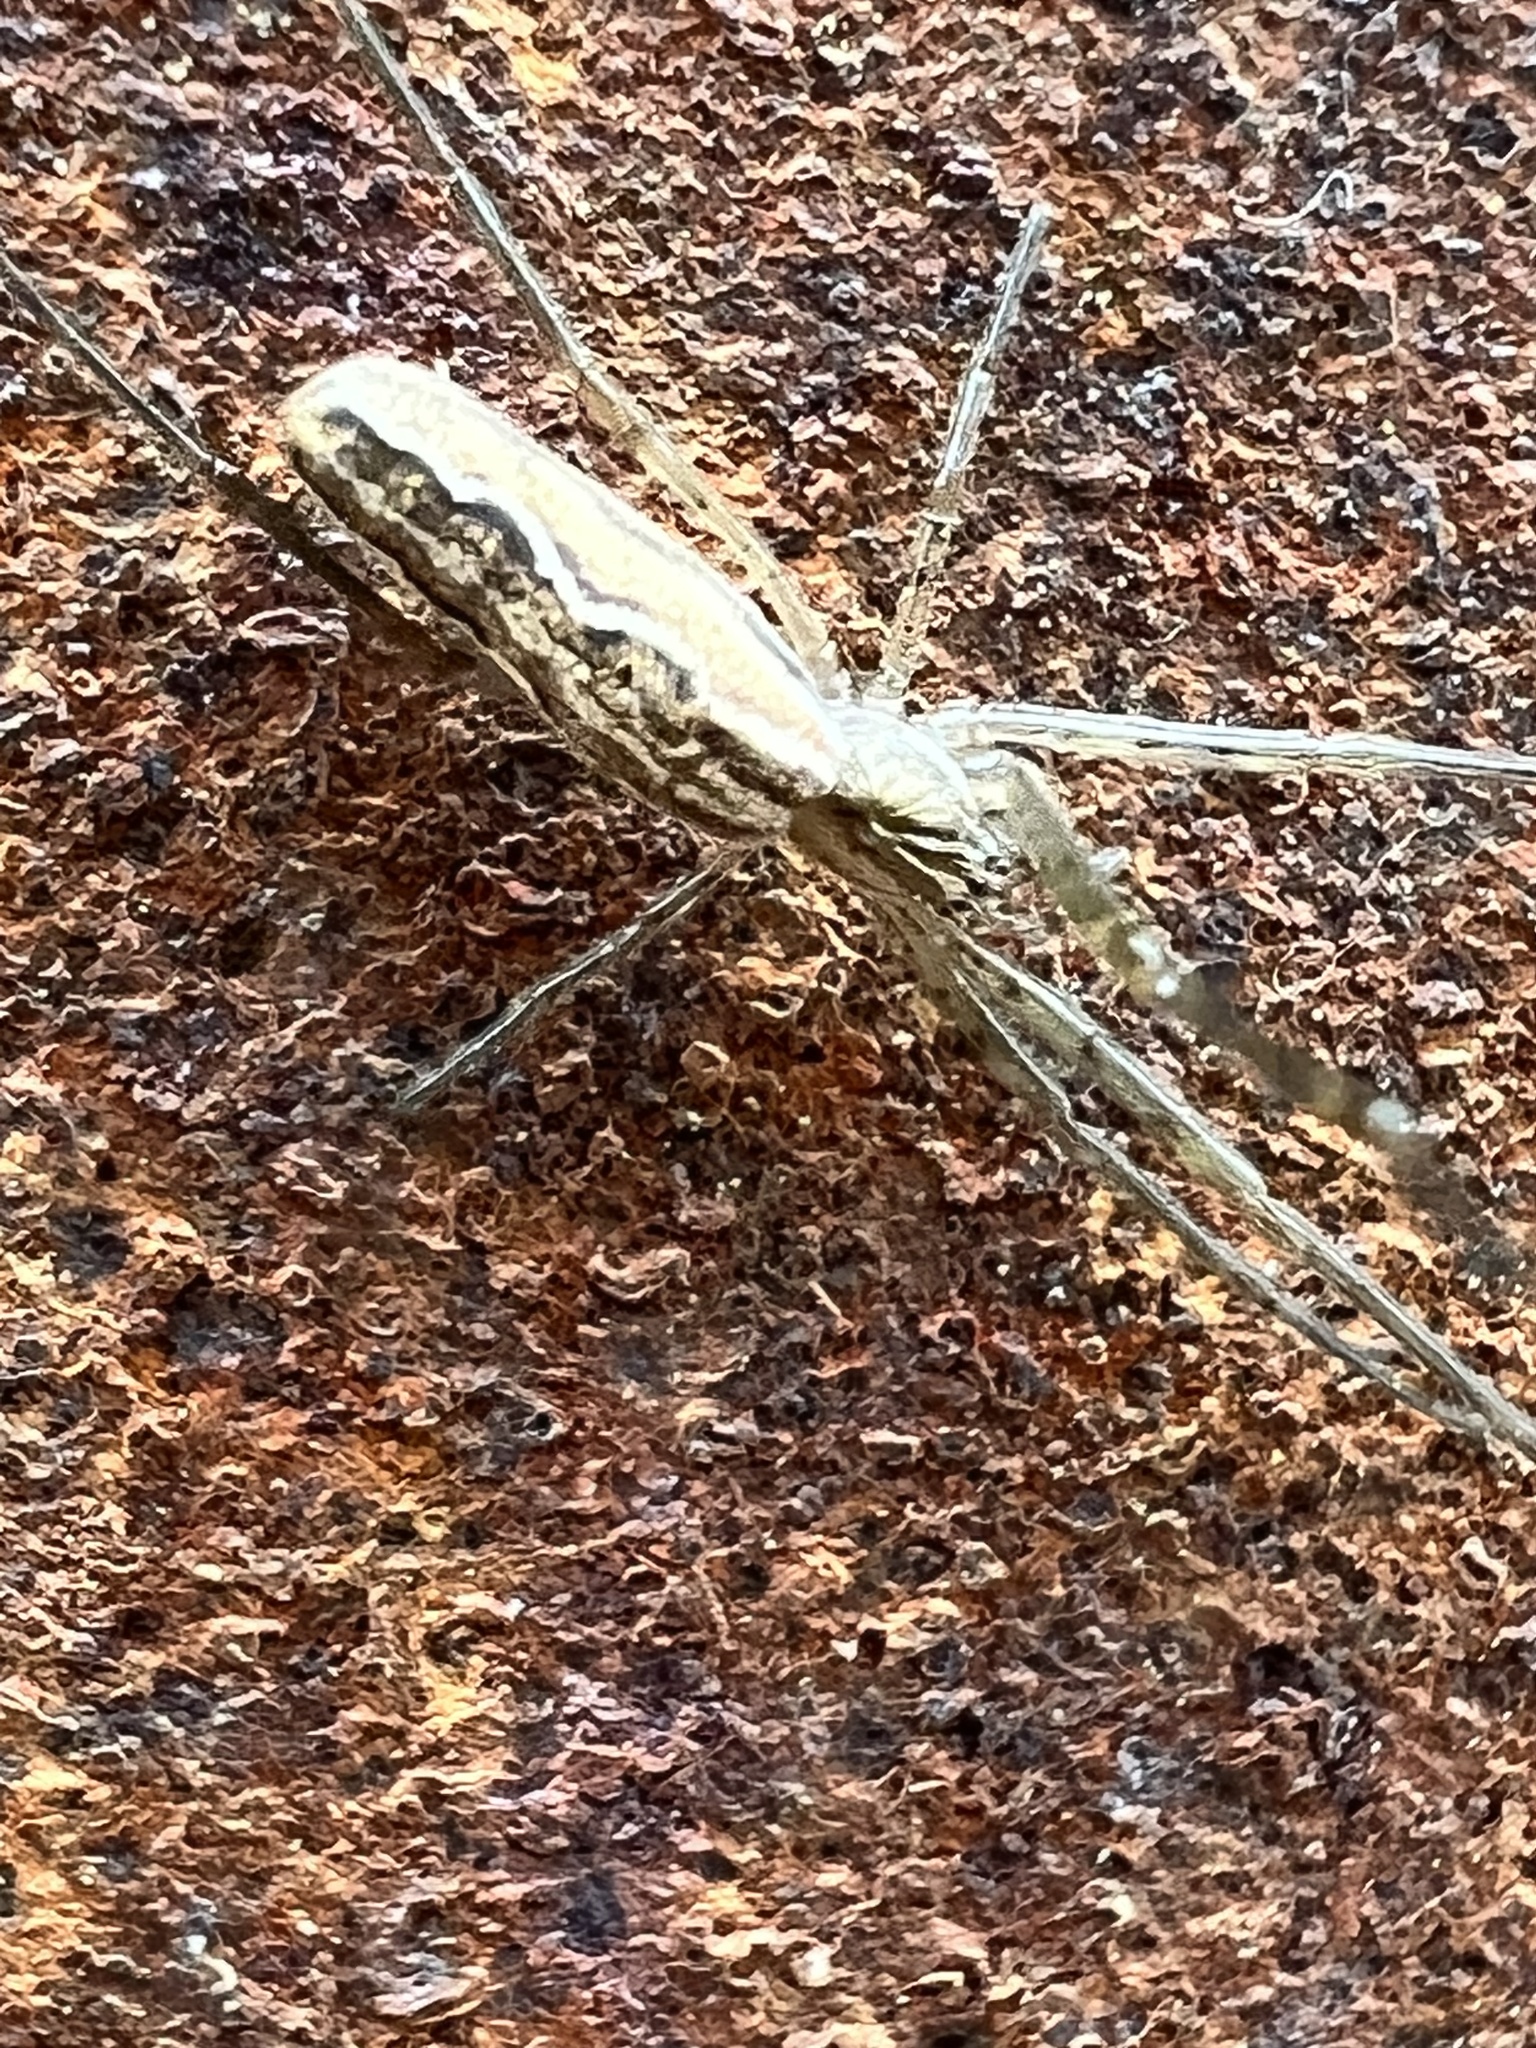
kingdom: Animalia
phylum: Arthropoda
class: Arachnida
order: Araneae
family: Tetragnathidae
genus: Tetragnatha
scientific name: Tetragnatha versicolor
